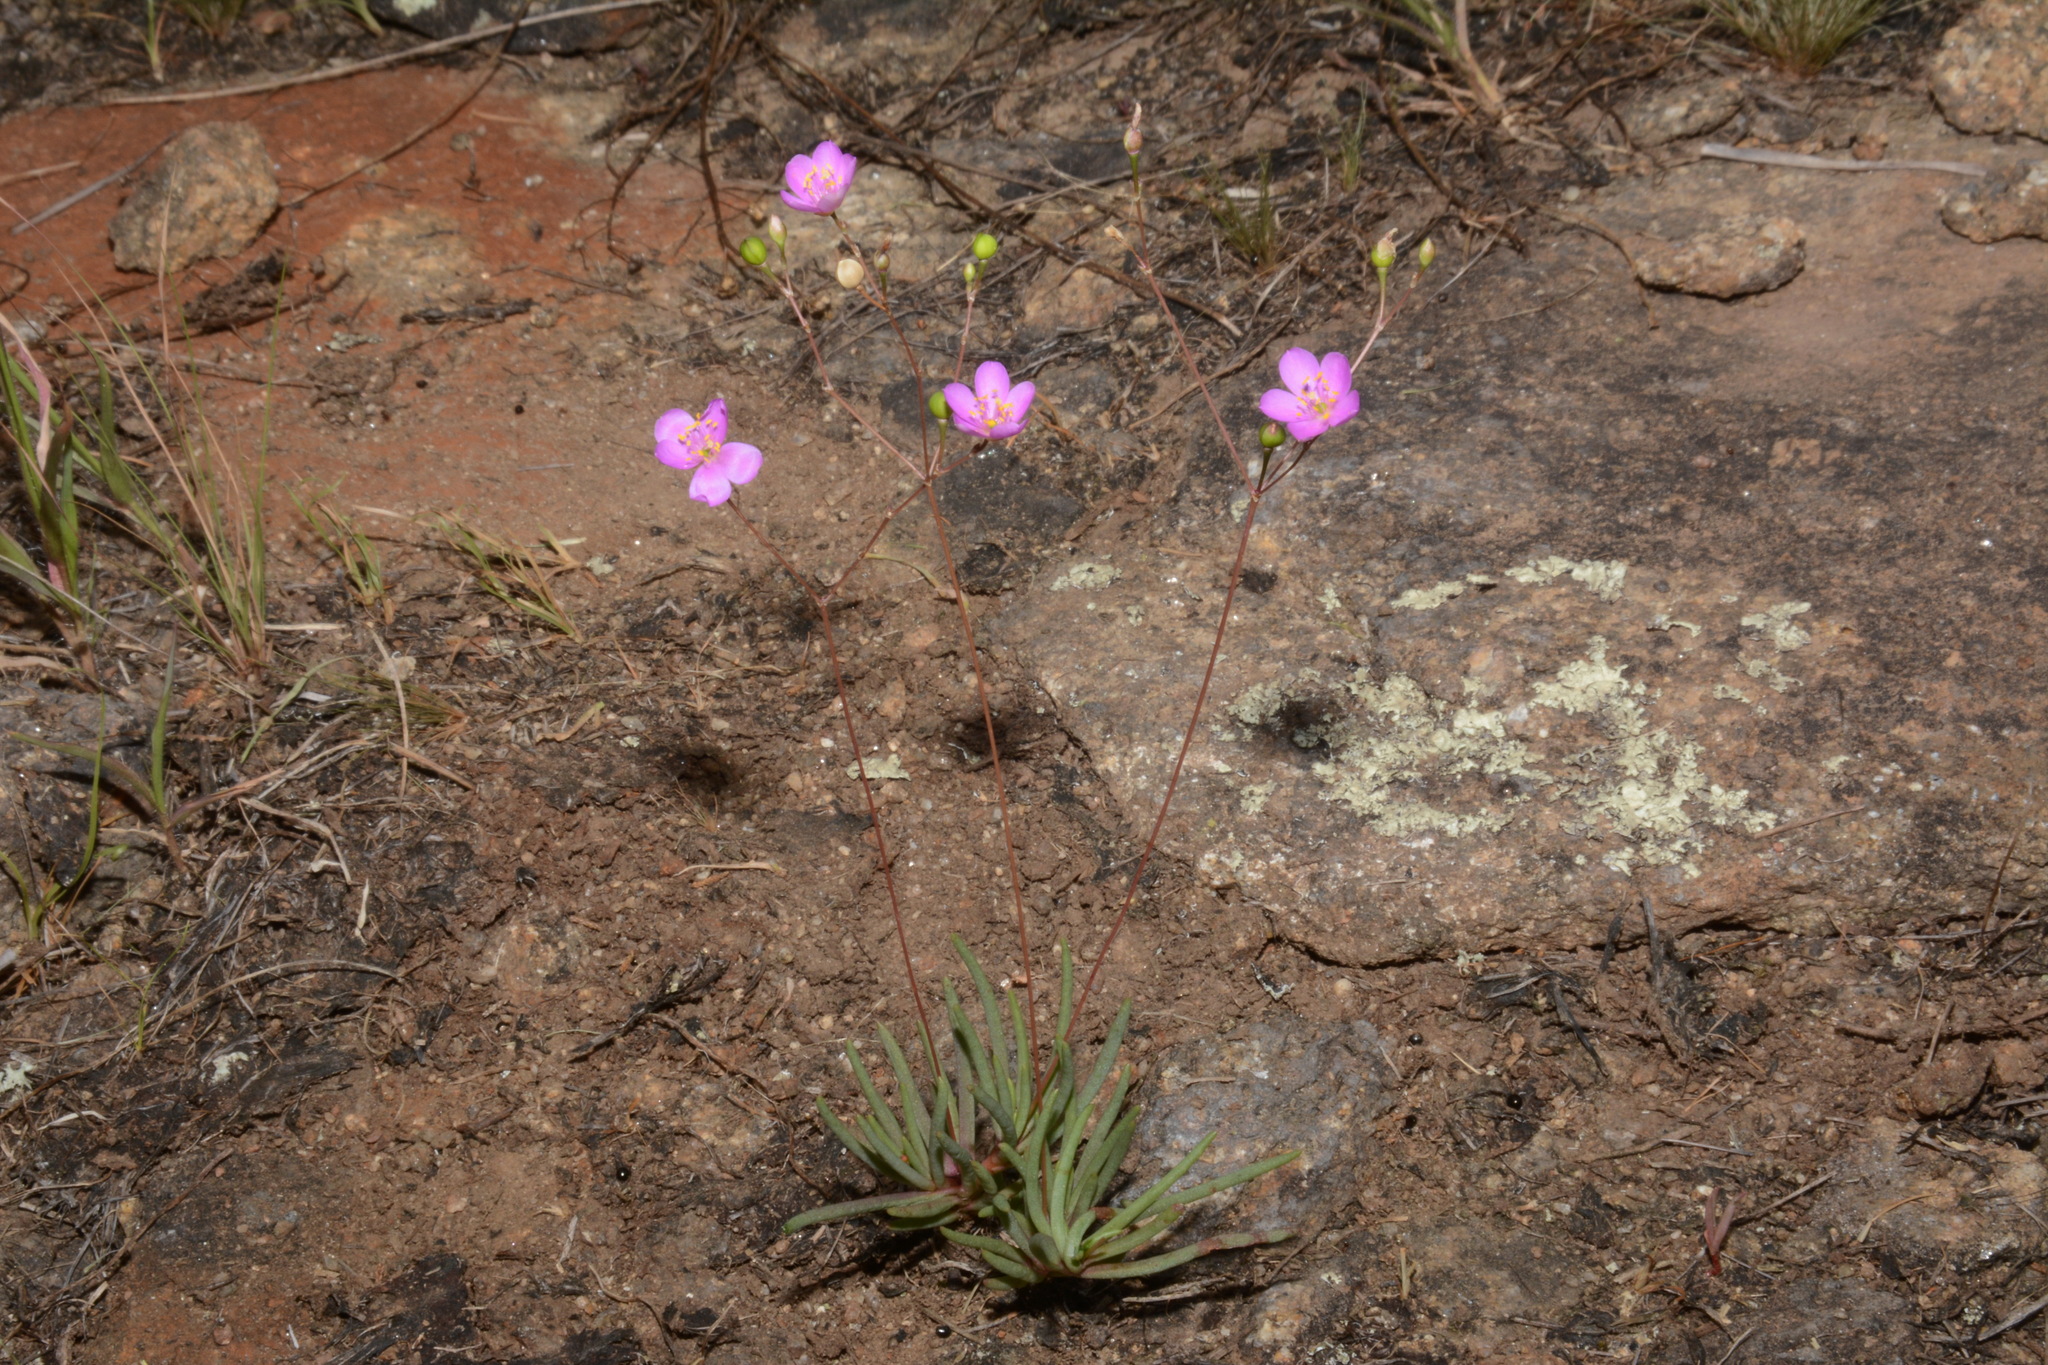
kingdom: Plantae
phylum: Tracheophyta
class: Magnoliopsida
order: Caryophyllales
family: Montiaceae
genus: Phemeranthus
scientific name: Phemeranthus teretifolius
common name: Quill fameflower
